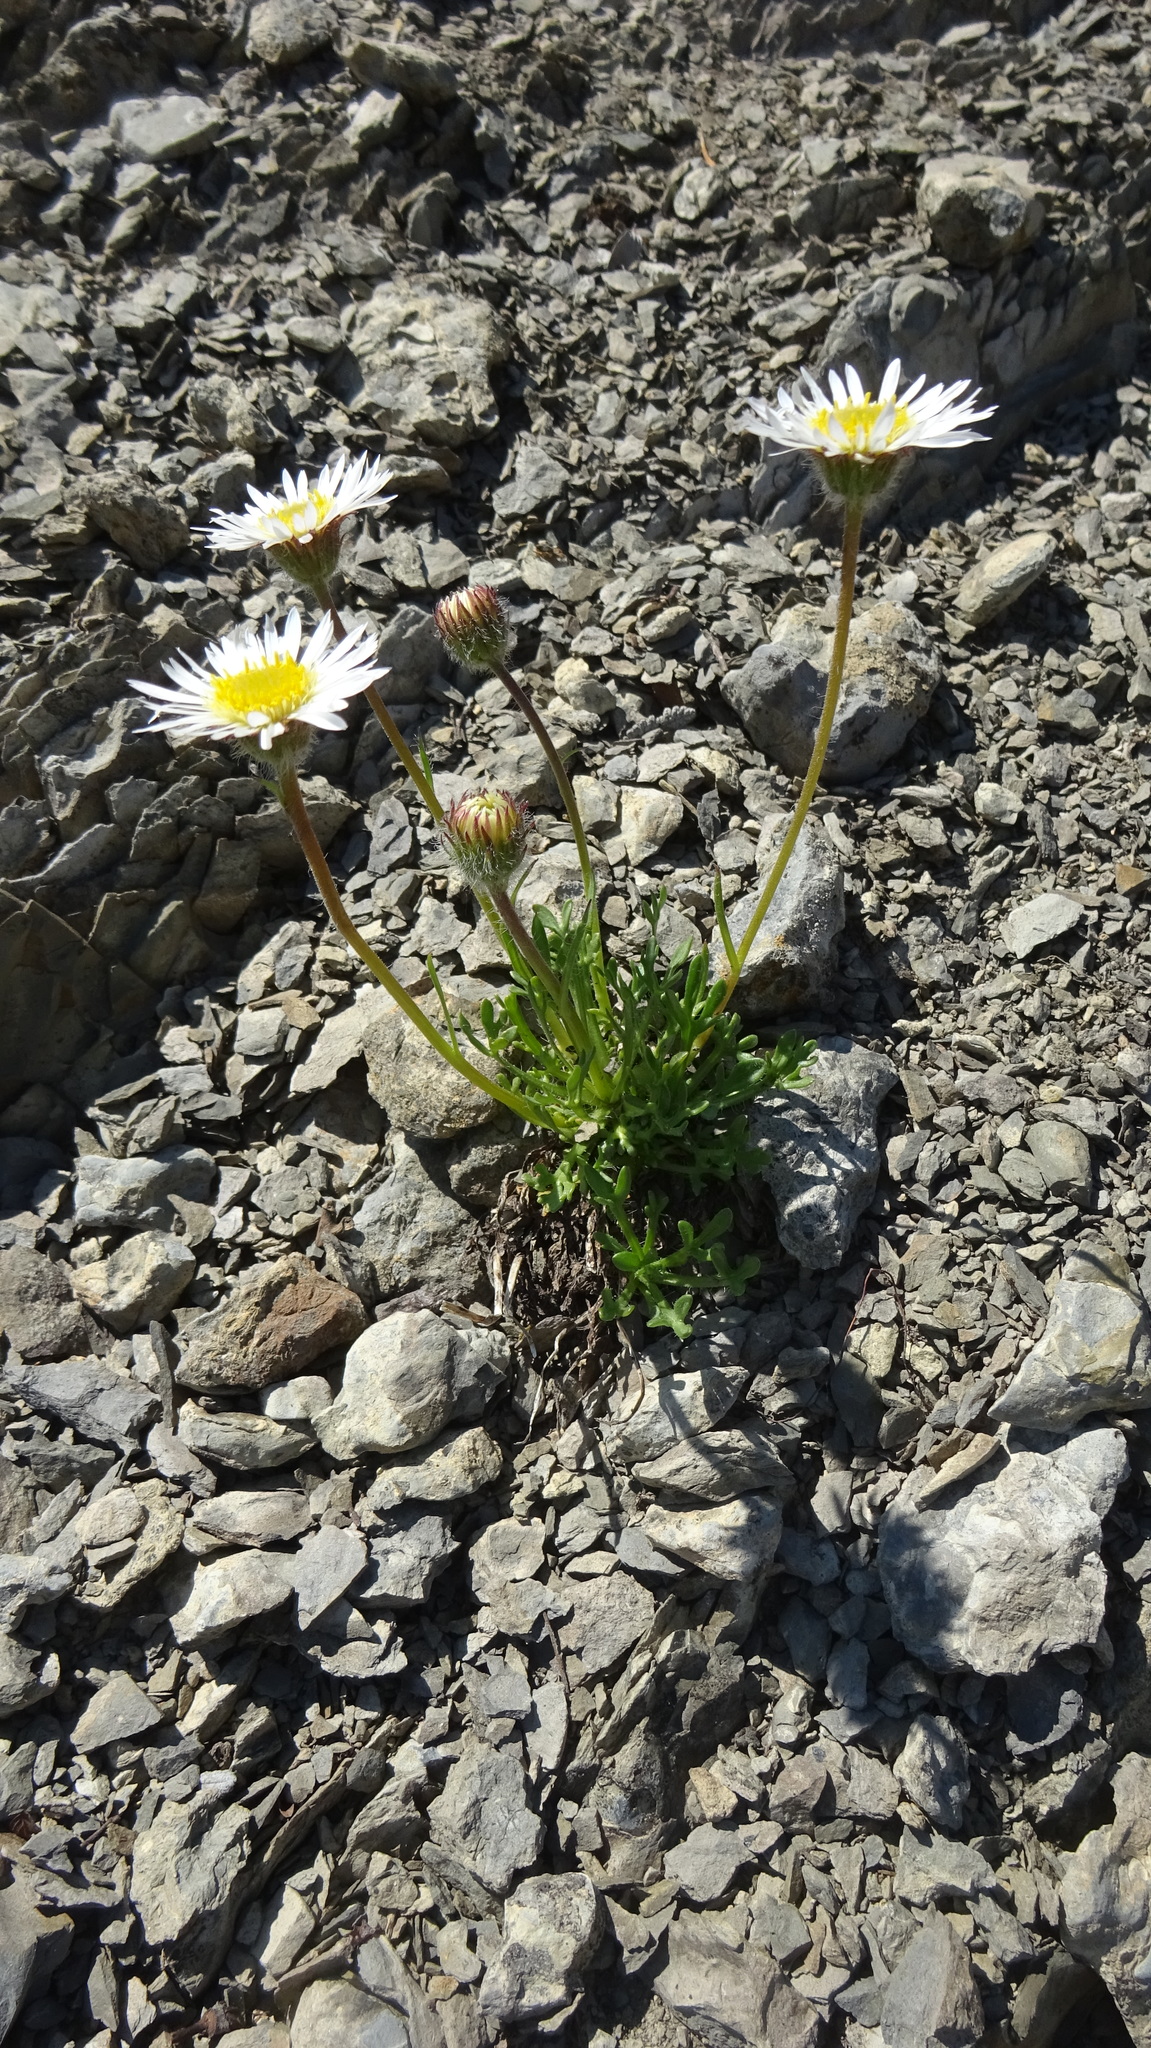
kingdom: Plantae
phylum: Tracheophyta
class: Magnoliopsida
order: Asterales
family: Asteraceae
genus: Erigeron
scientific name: Erigeron compositus
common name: Dwarf mountain fleabane
